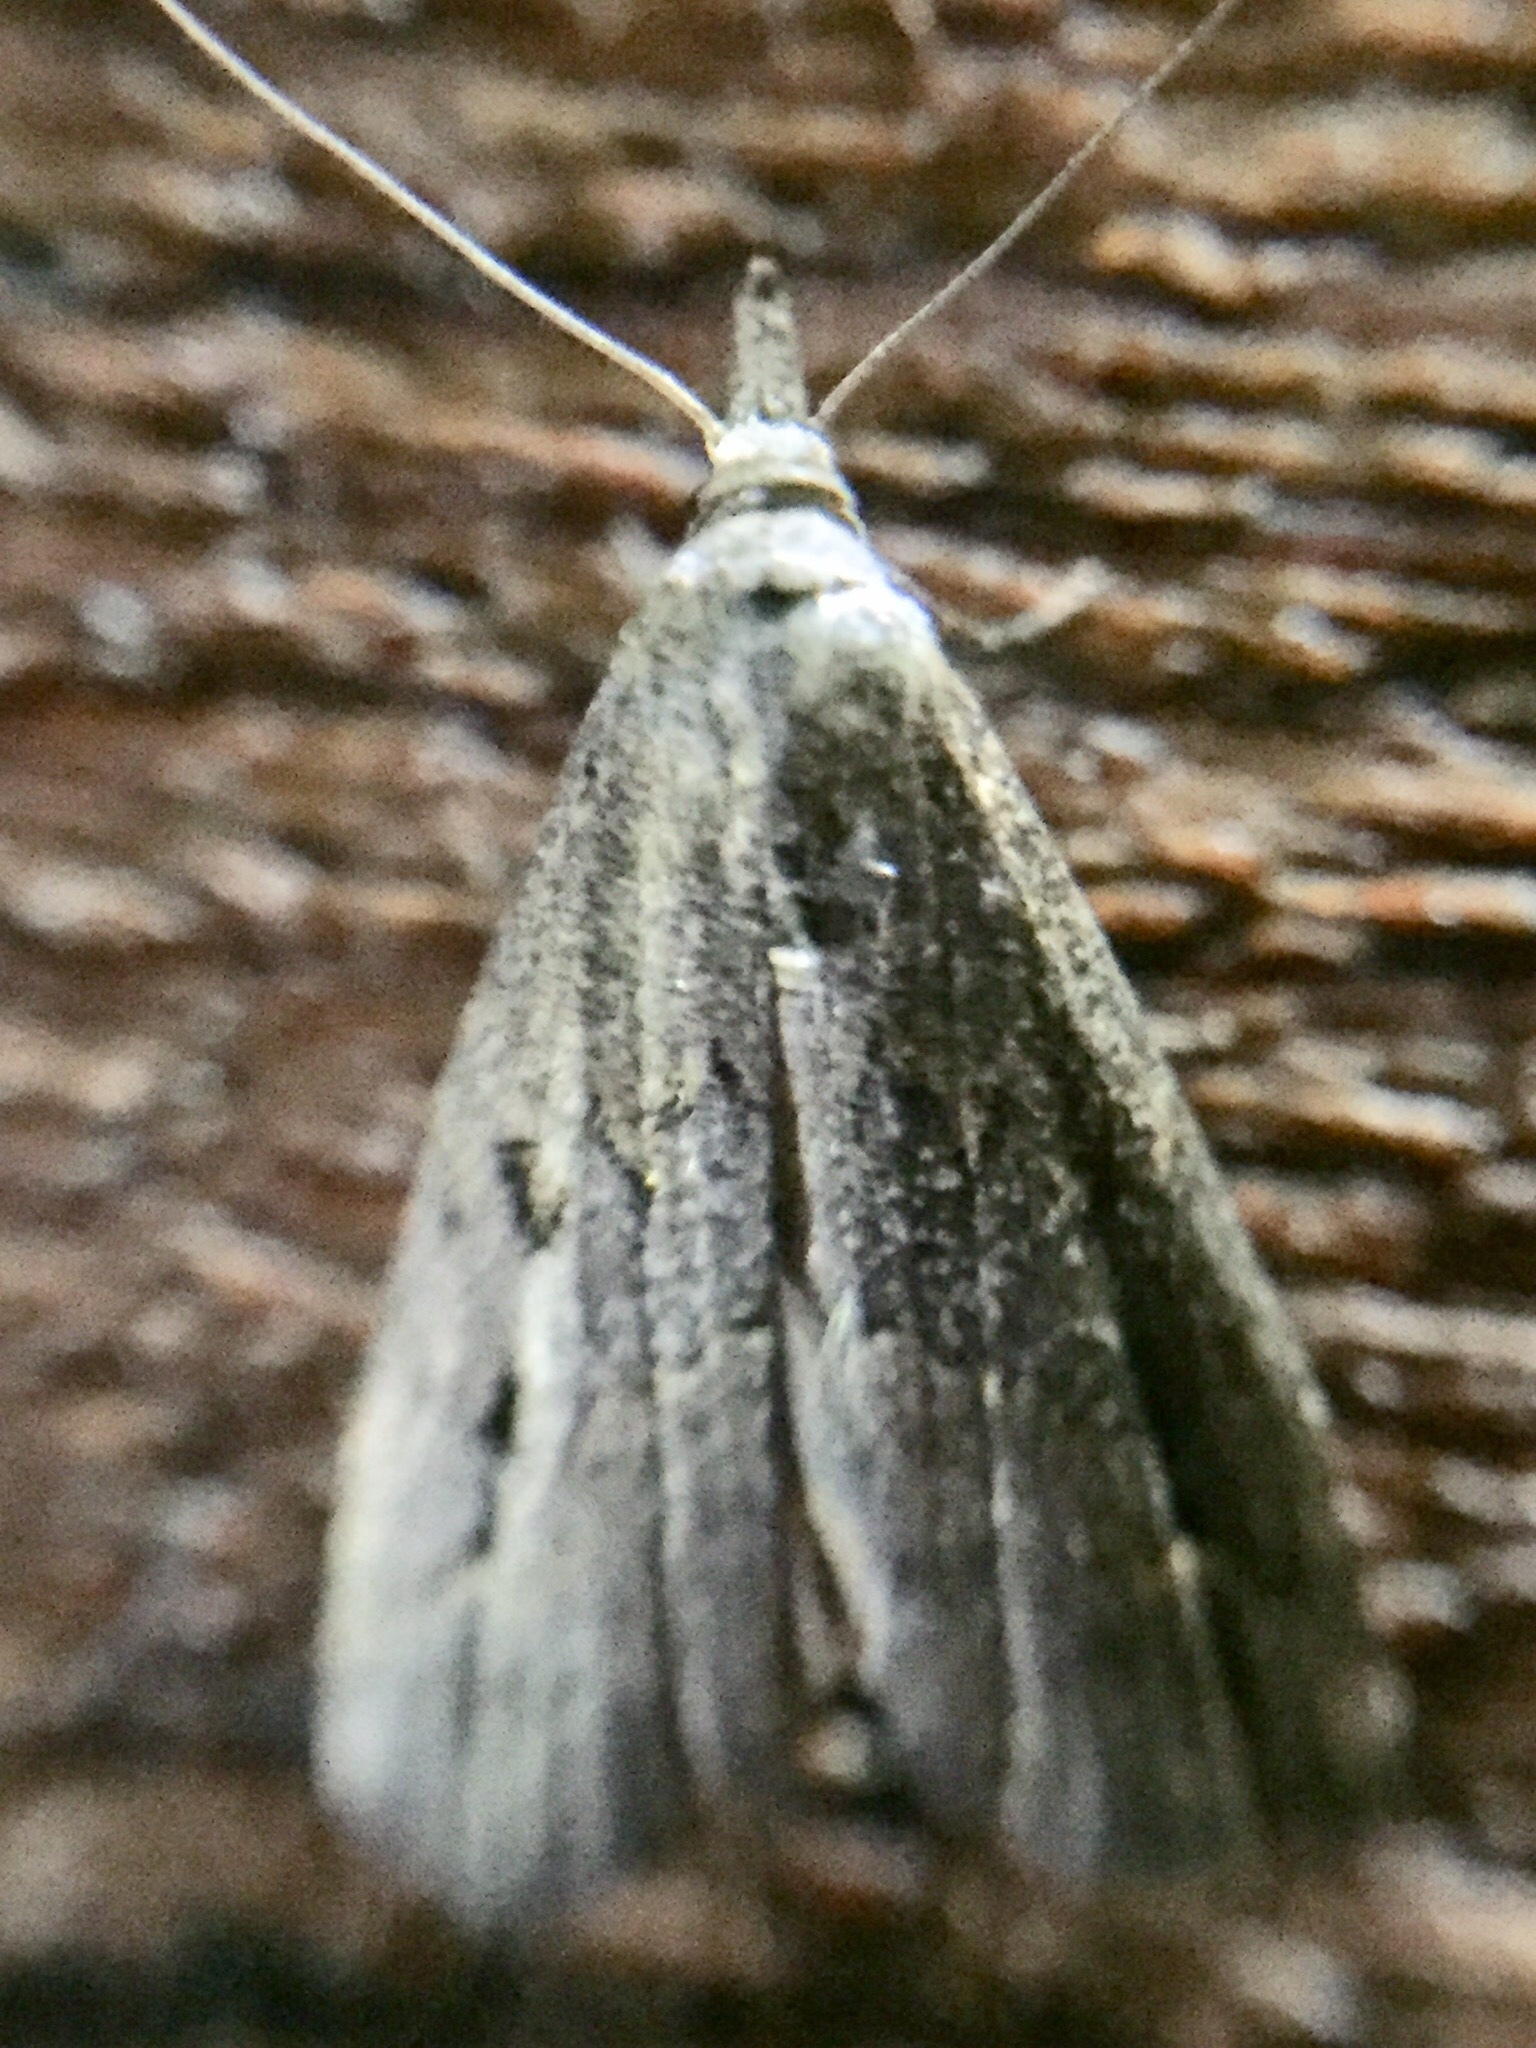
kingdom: Animalia
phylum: Arthropoda
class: Insecta
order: Lepidoptera
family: Erebidae
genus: Schrankia
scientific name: Schrankia costaestrigalis
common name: Pinion-streaked snout
